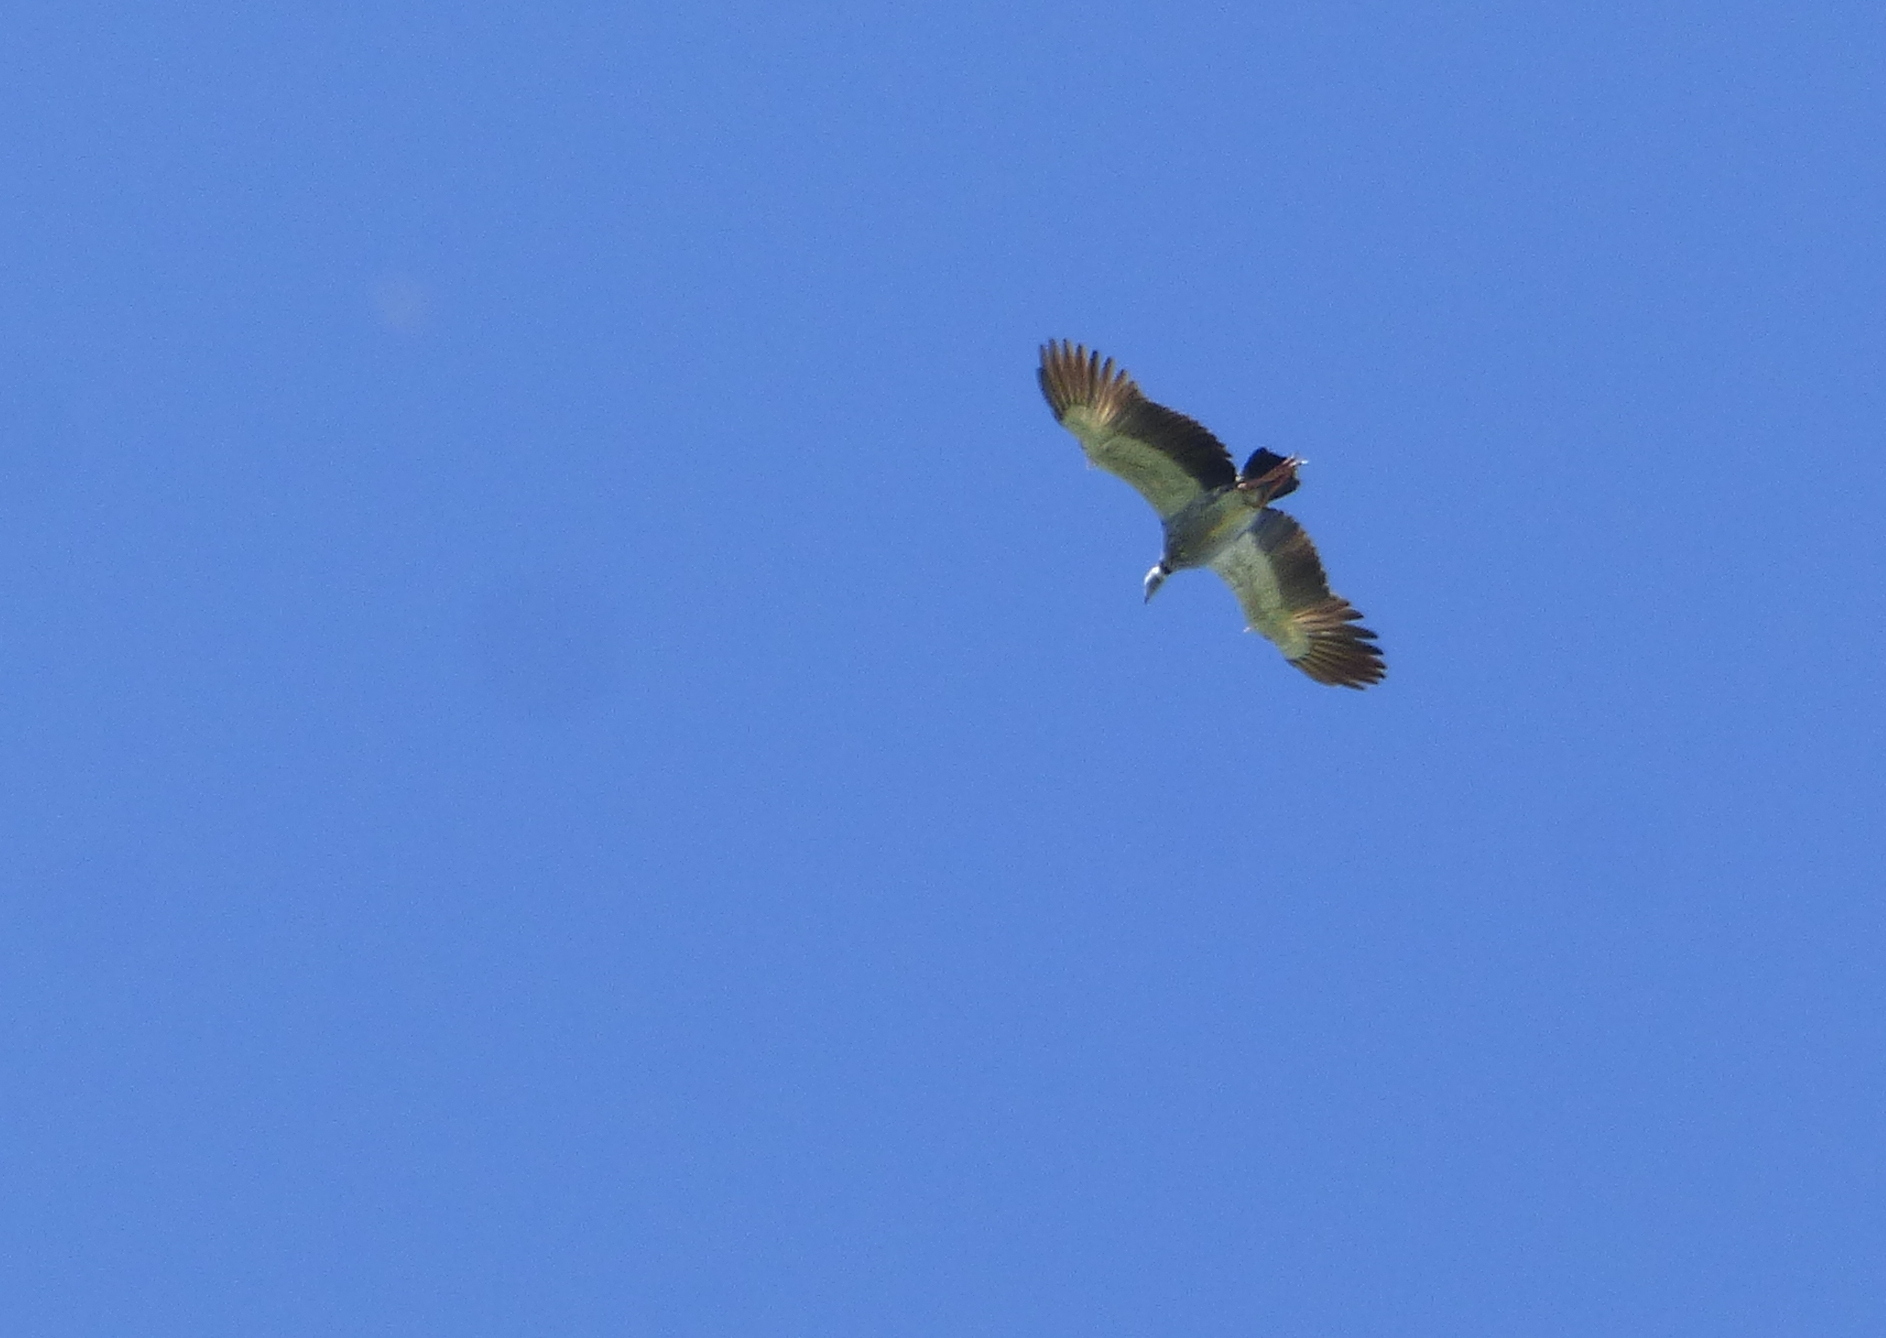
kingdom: Animalia
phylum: Chordata
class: Aves
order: Anseriformes
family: Anhimidae
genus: Chauna
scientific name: Chauna torquata
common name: Southern screamer
